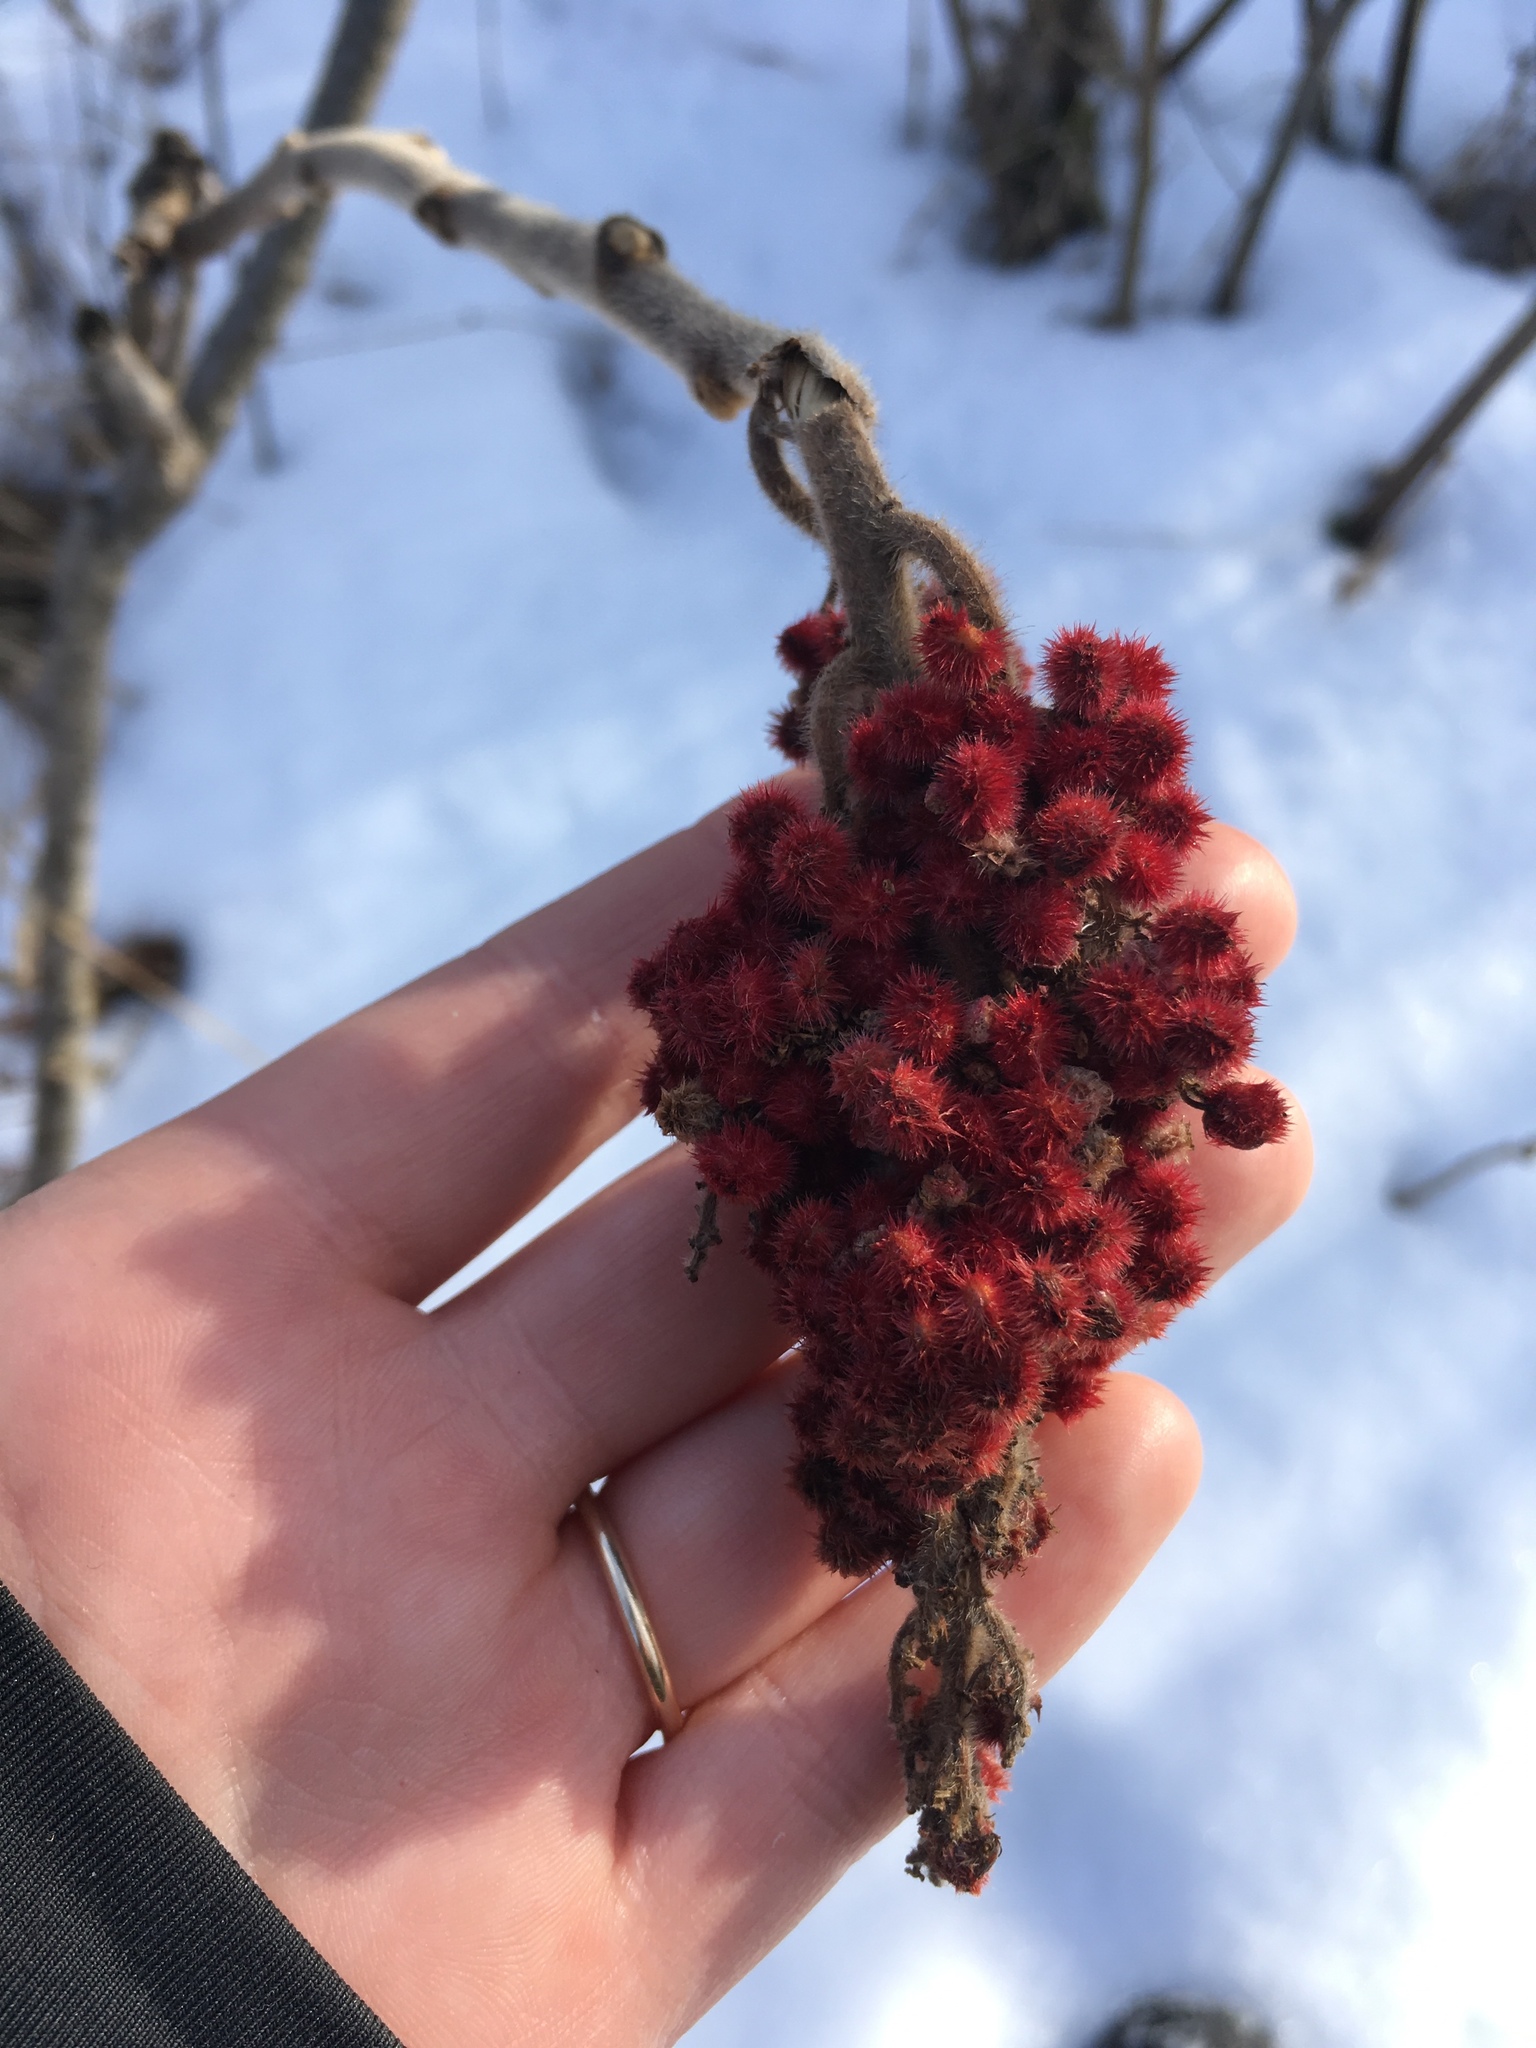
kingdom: Plantae
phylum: Tracheophyta
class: Magnoliopsida
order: Sapindales
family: Anacardiaceae
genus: Rhus
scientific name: Rhus typhina
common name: Staghorn sumac
